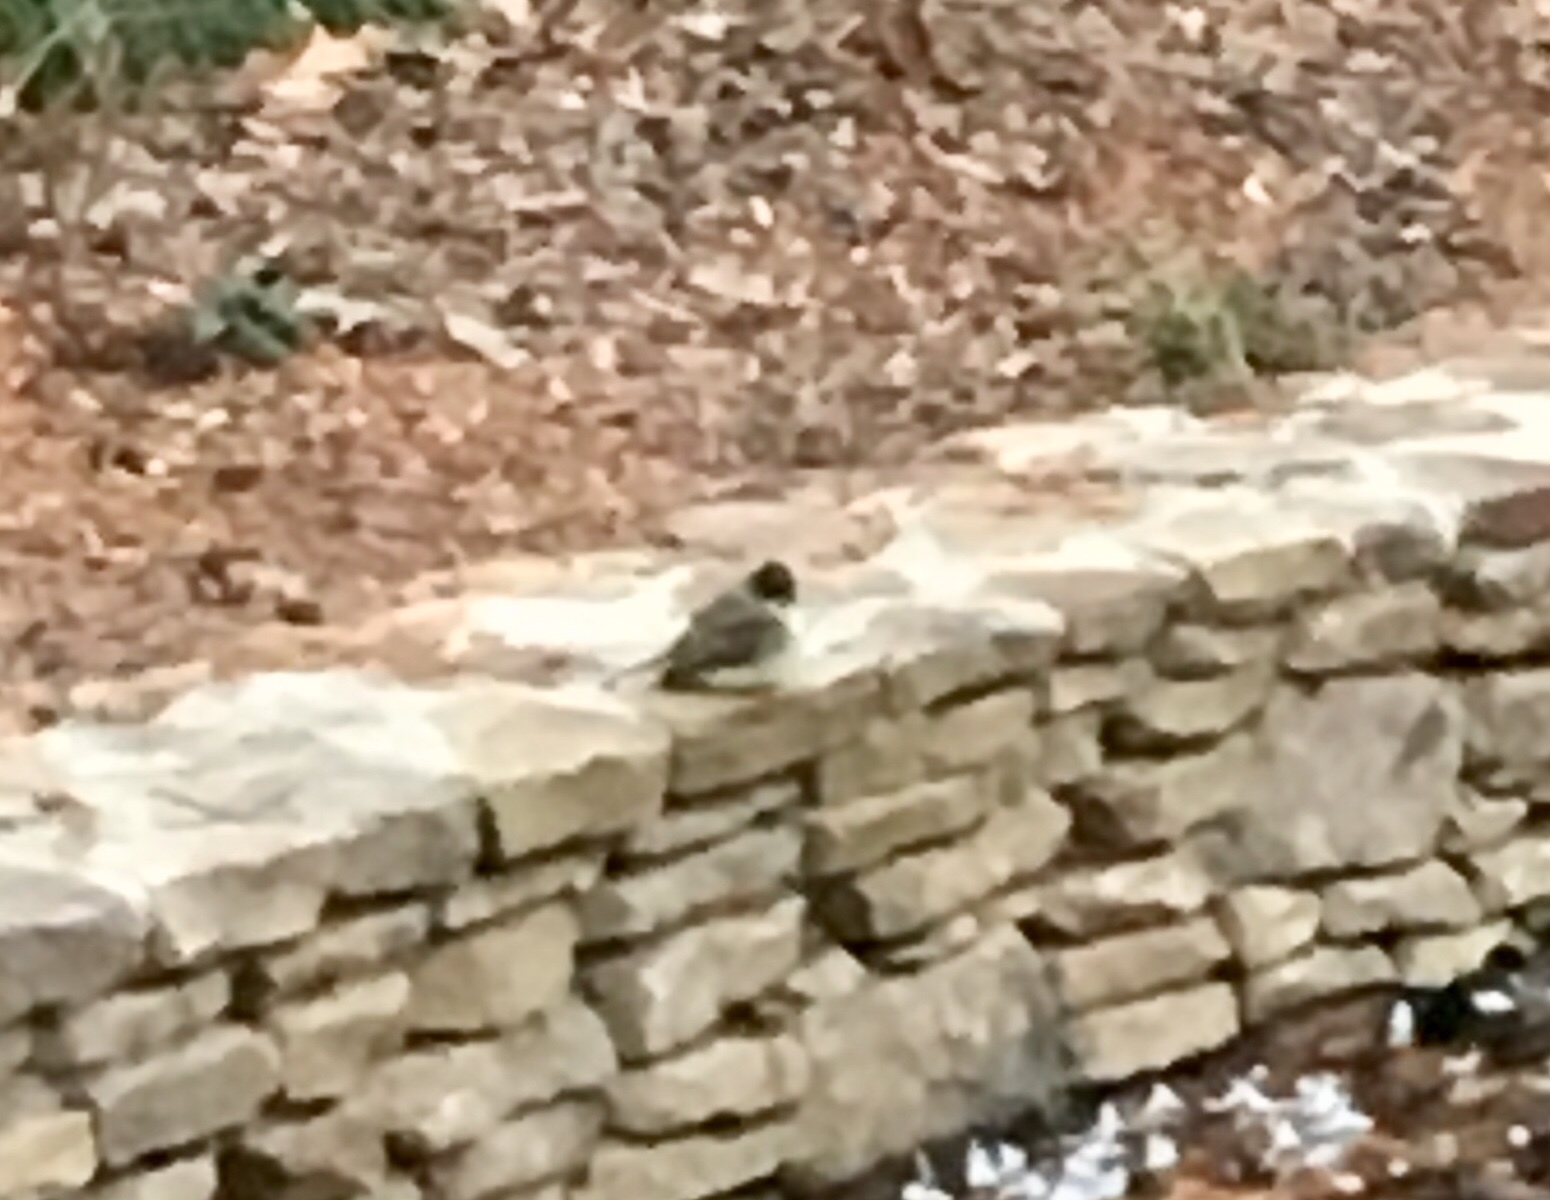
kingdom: Animalia
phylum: Chordata
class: Aves
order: Passeriformes
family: Tyrannidae
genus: Sayornis
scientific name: Sayornis phoebe
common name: Eastern phoebe
